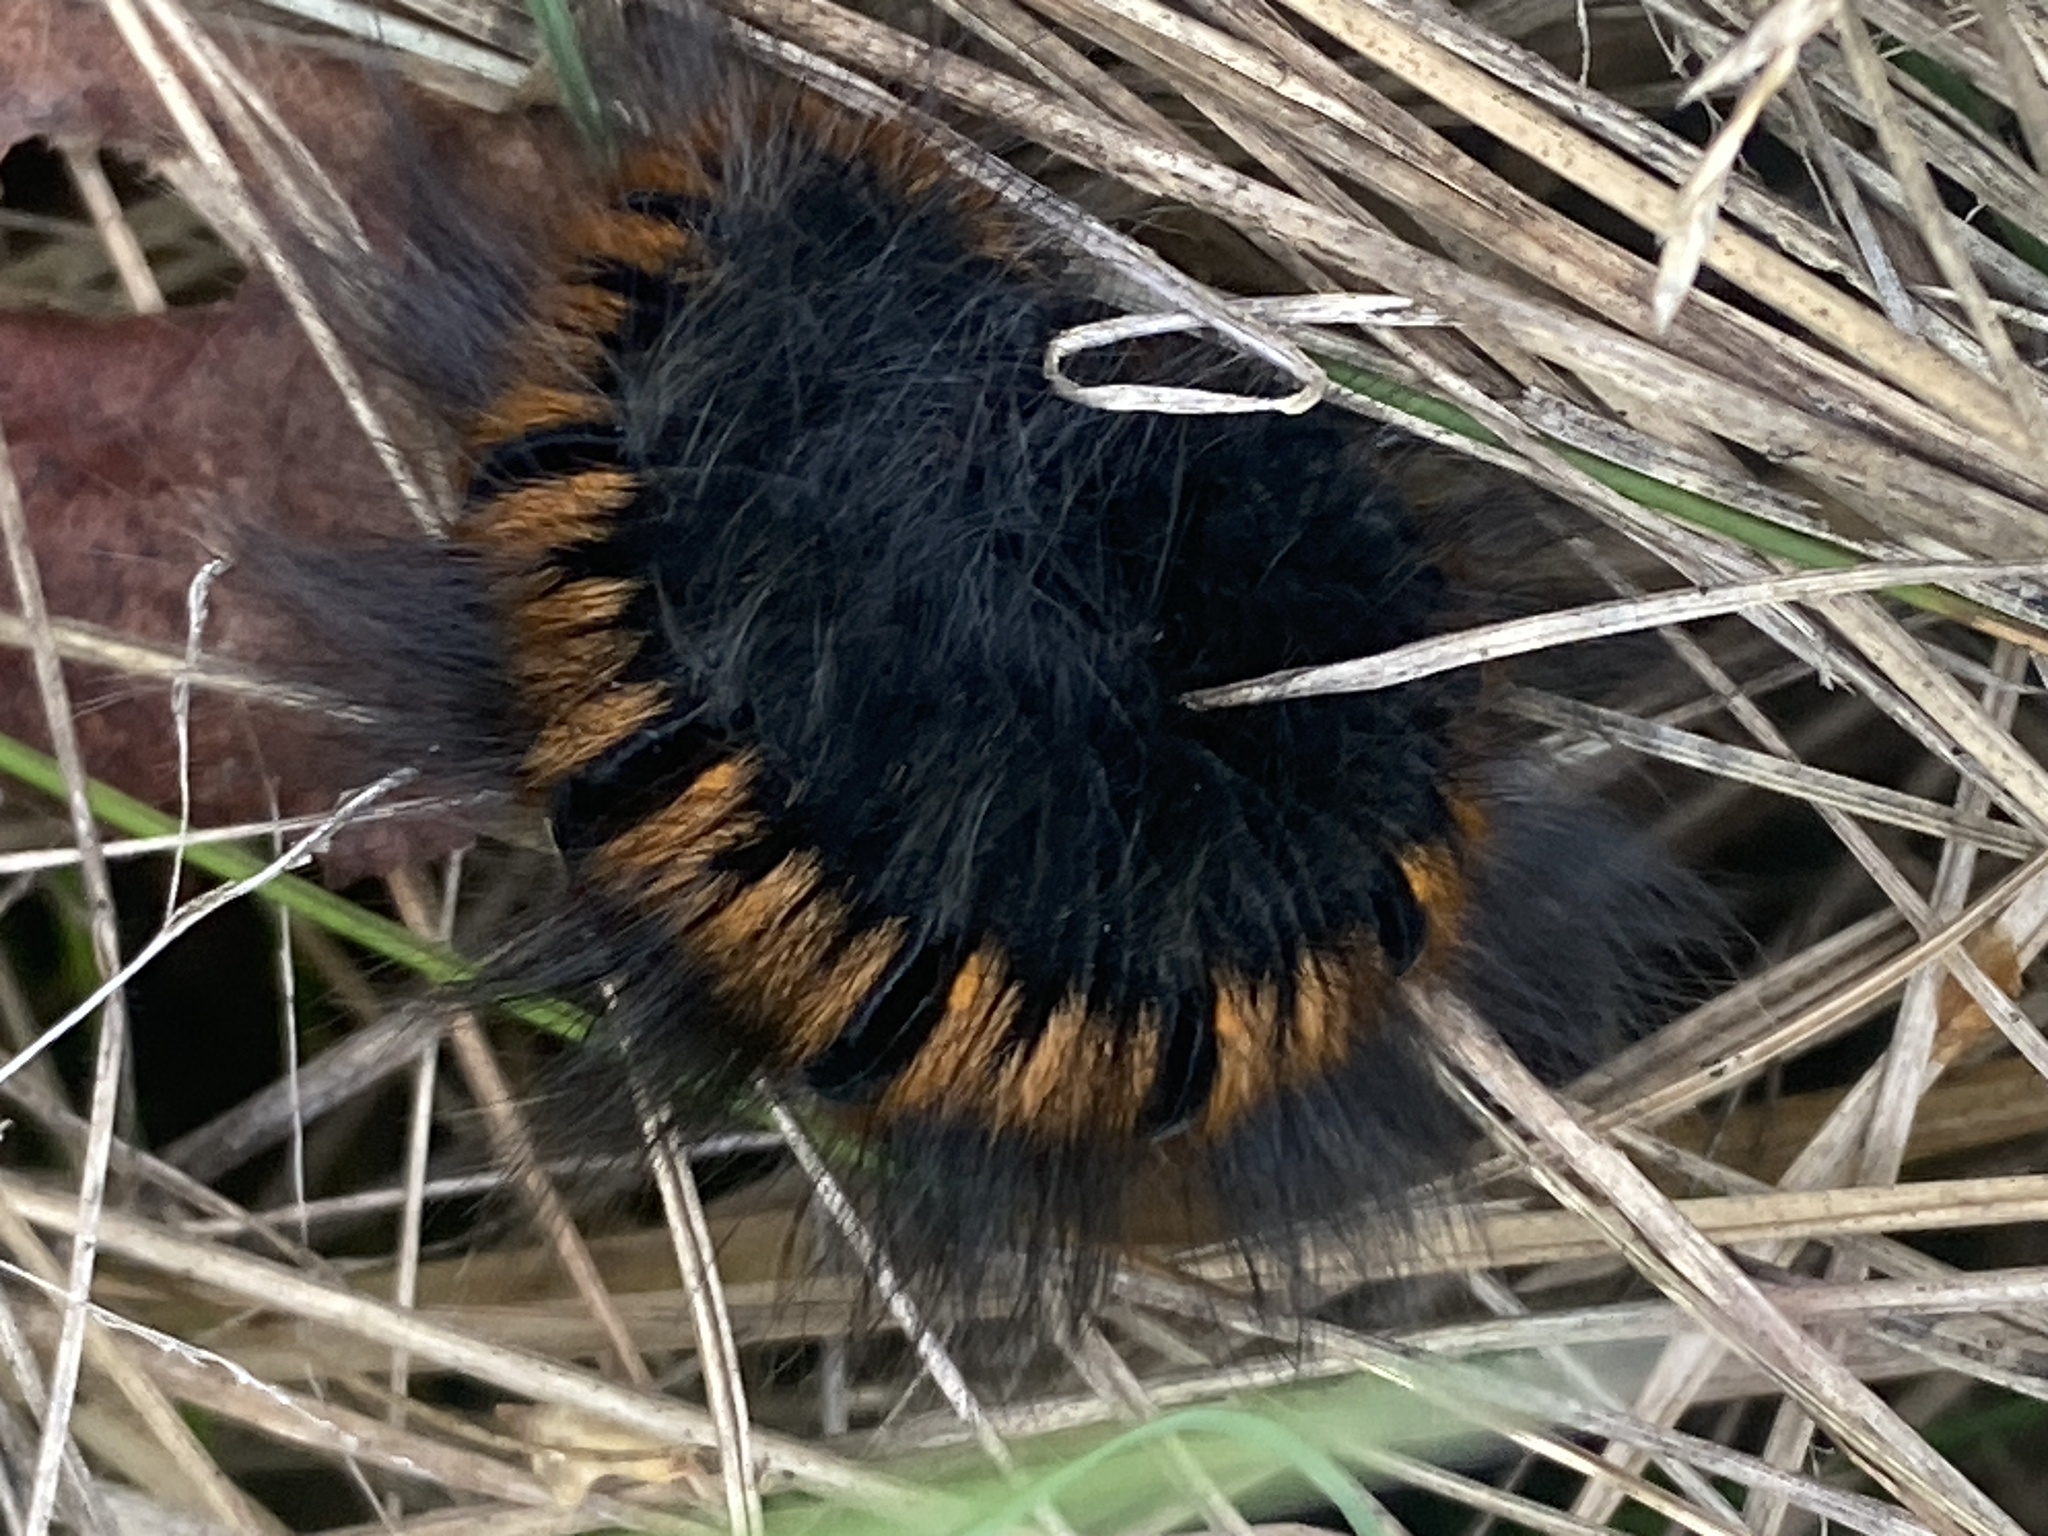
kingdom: Animalia
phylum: Arthropoda
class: Insecta
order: Lepidoptera
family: Lasiocampidae
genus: Macrothylacia
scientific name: Macrothylacia rubi
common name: Fox moth
